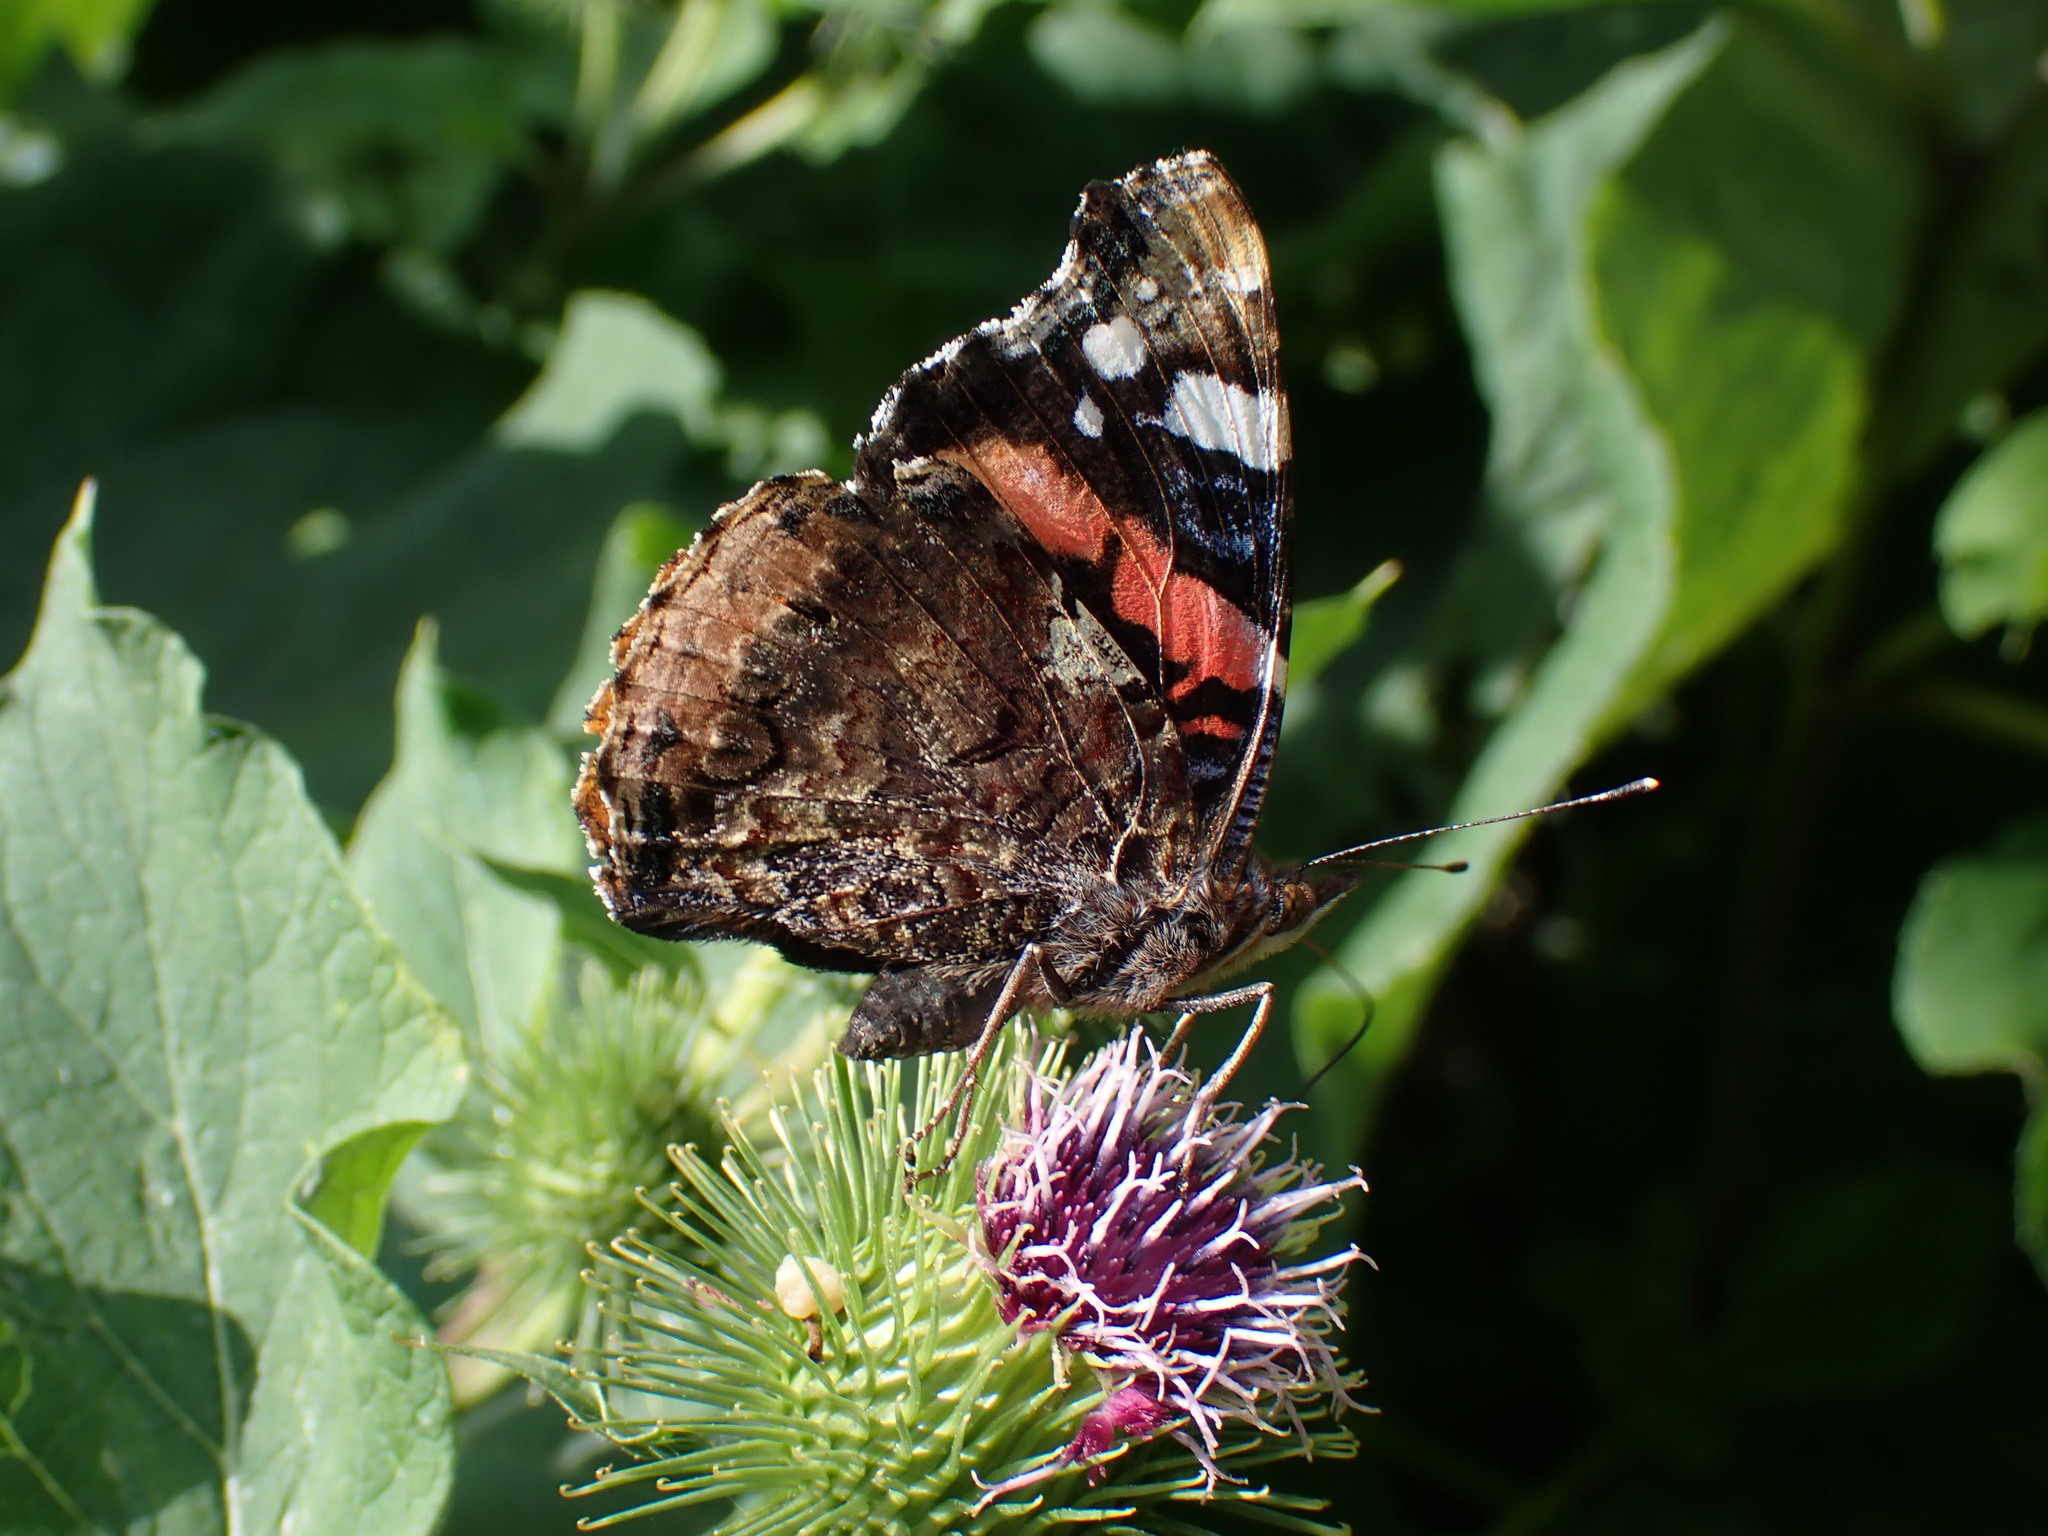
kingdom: Animalia
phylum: Arthropoda
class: Insecta
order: Lepidoptera
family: Nymphalidae
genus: Vanessa
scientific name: Vanessa atalanta
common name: Red admiral
